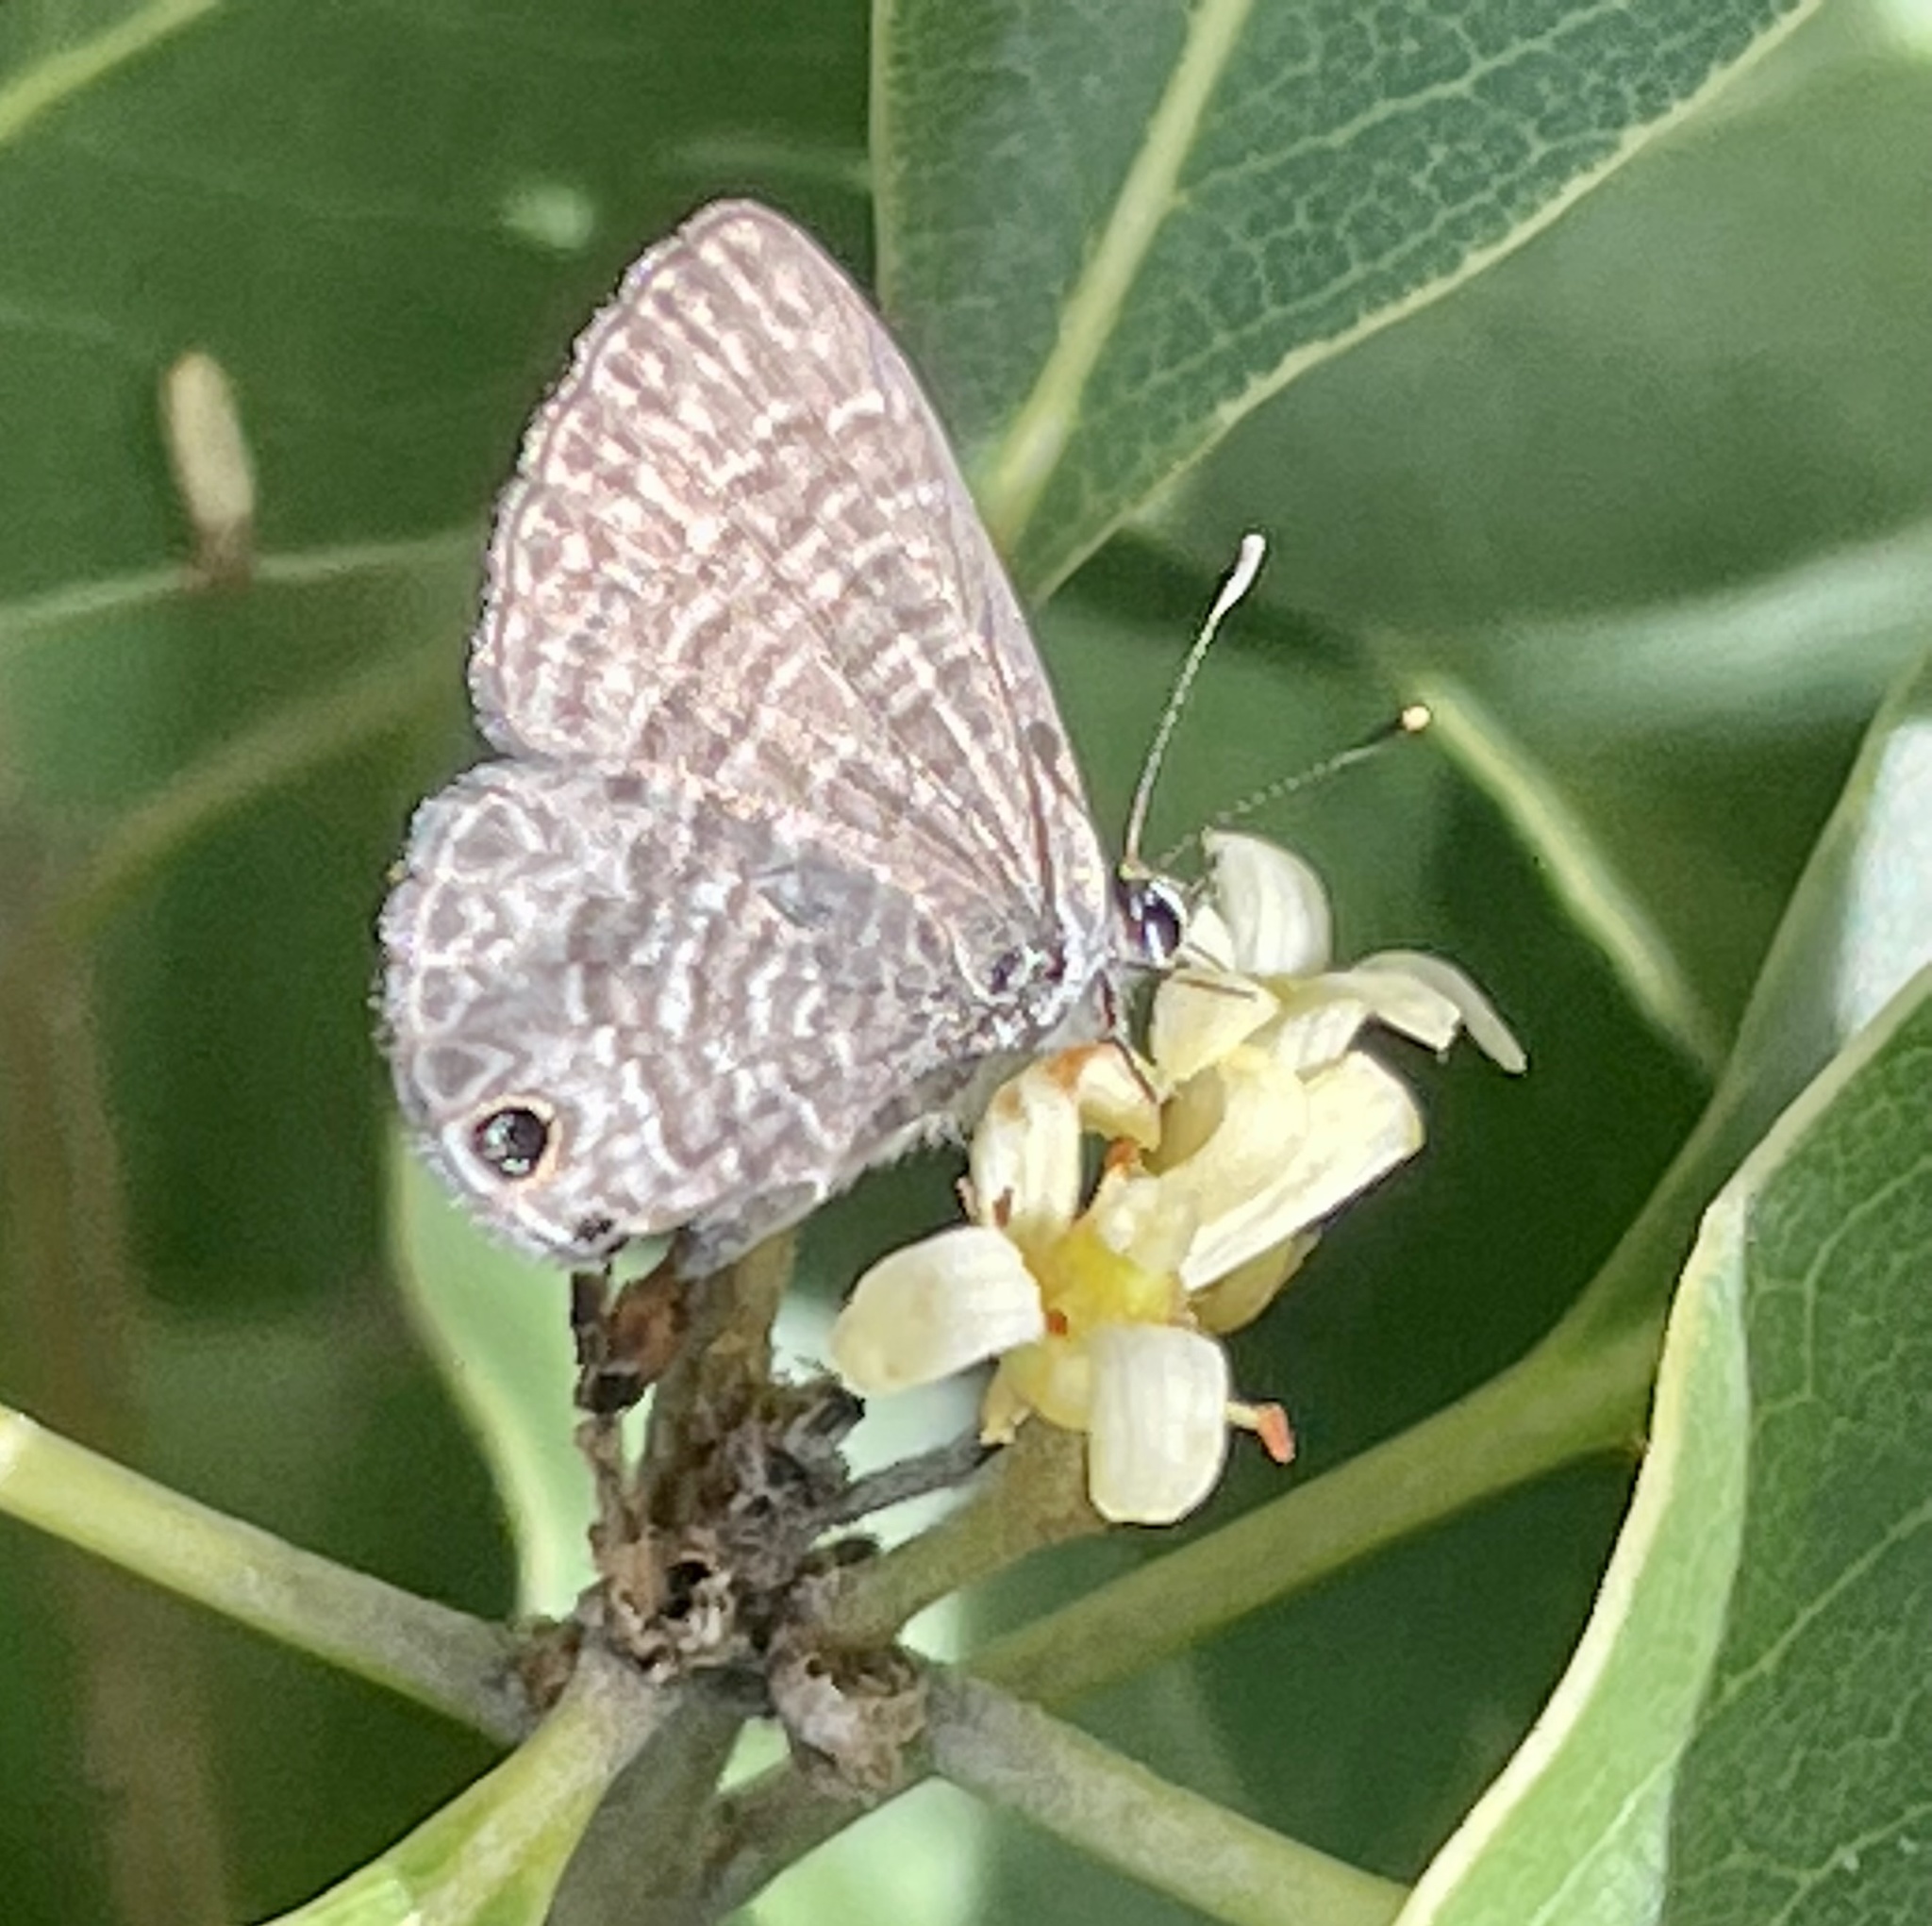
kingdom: Animalia
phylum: Arthropoda
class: Insecta
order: Lepidoptera
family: Lycaenidae
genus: Prosotas
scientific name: Prosotas dubiosa
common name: Tailless lineblue
